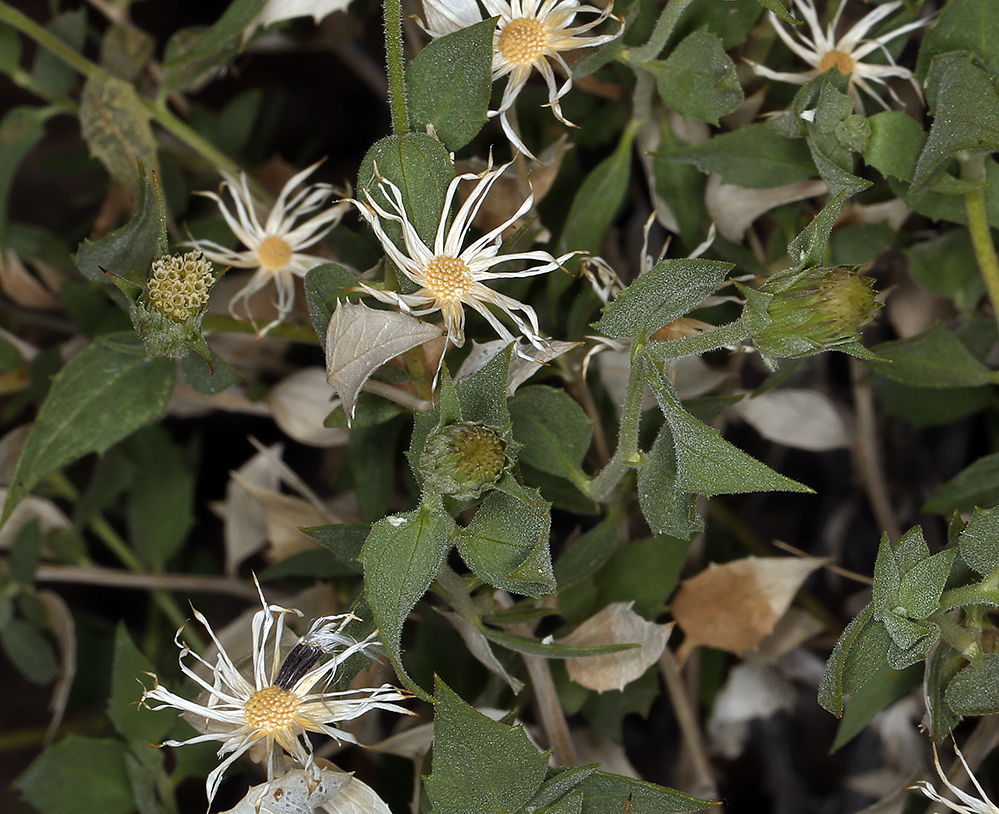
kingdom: Plantae
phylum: Tracheophyta
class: Magnoliopsida
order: Asterales
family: Asteraceae
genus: Brickellia
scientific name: Brickellia atractyloides
